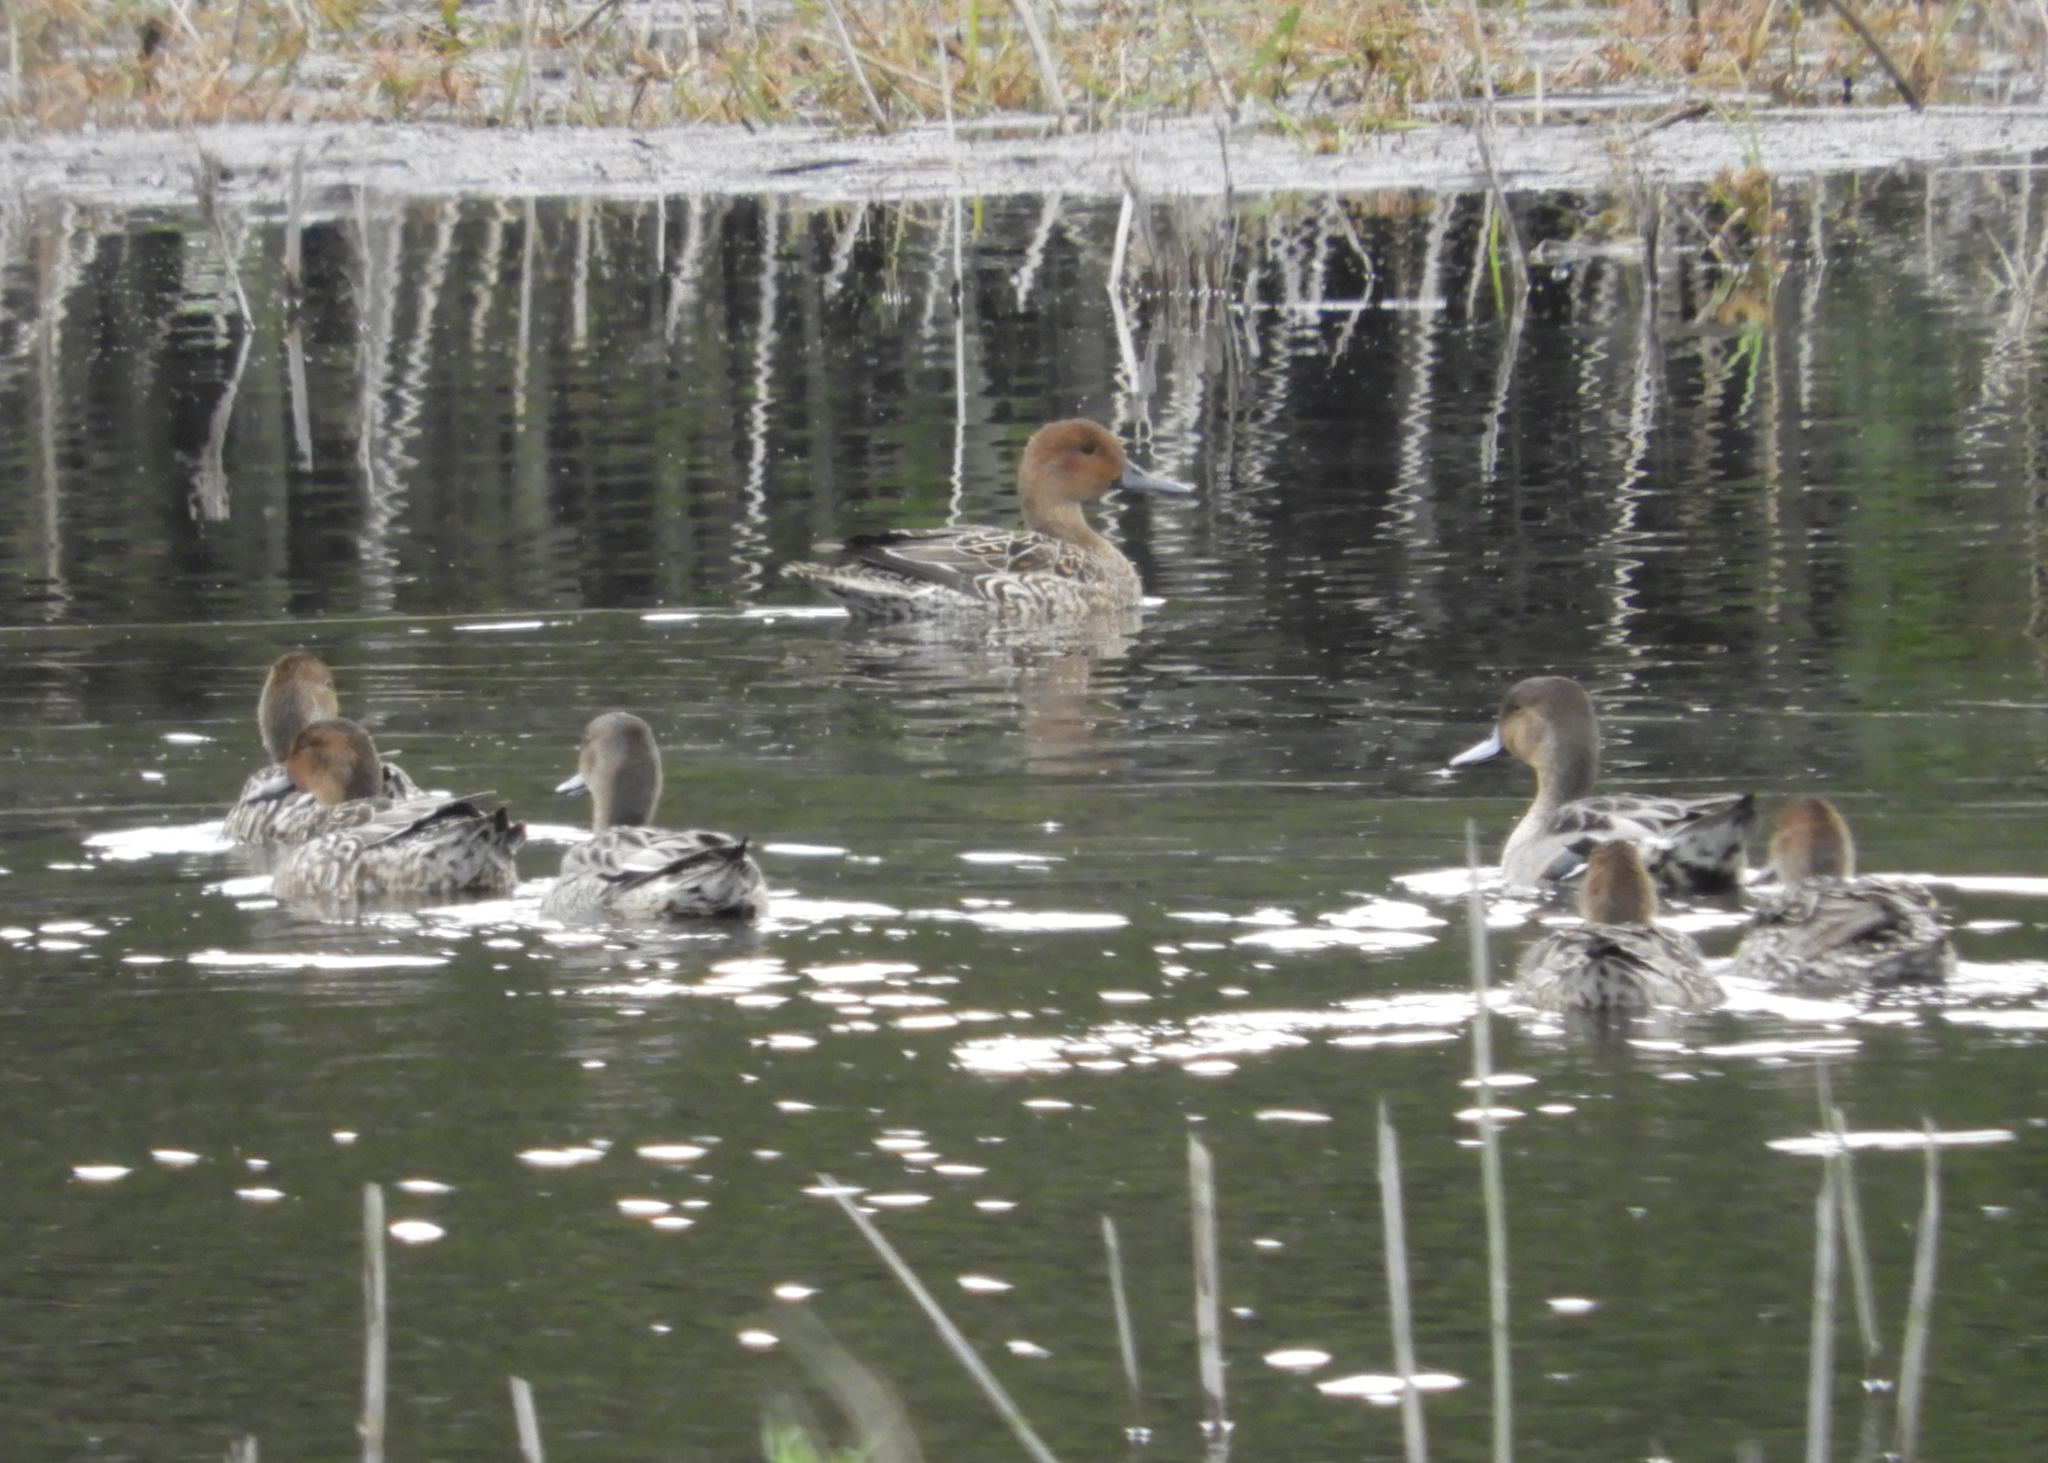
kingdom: Animalia
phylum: Chordata
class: Aves
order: Anseriformes
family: Anatidae
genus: Anas
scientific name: Anas acuta
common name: Northern pintail
